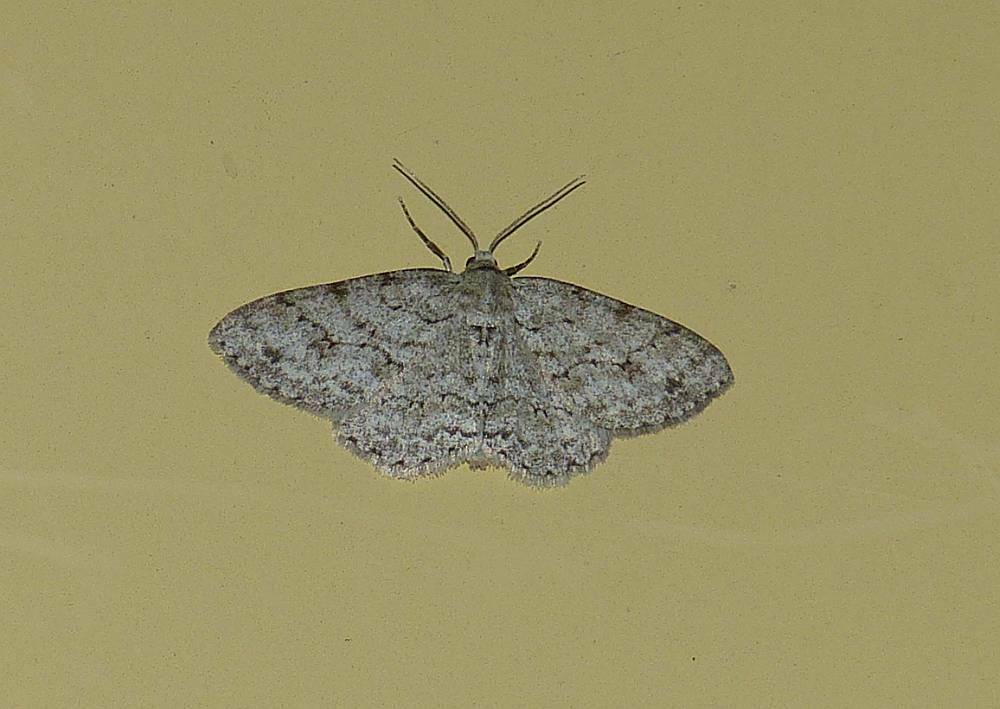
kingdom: Animalia
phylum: Arthropoda
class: Insecta
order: Lepidoptera
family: Geometridae
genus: Ectropis
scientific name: Ectropis crepuscularia
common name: Engrailed
